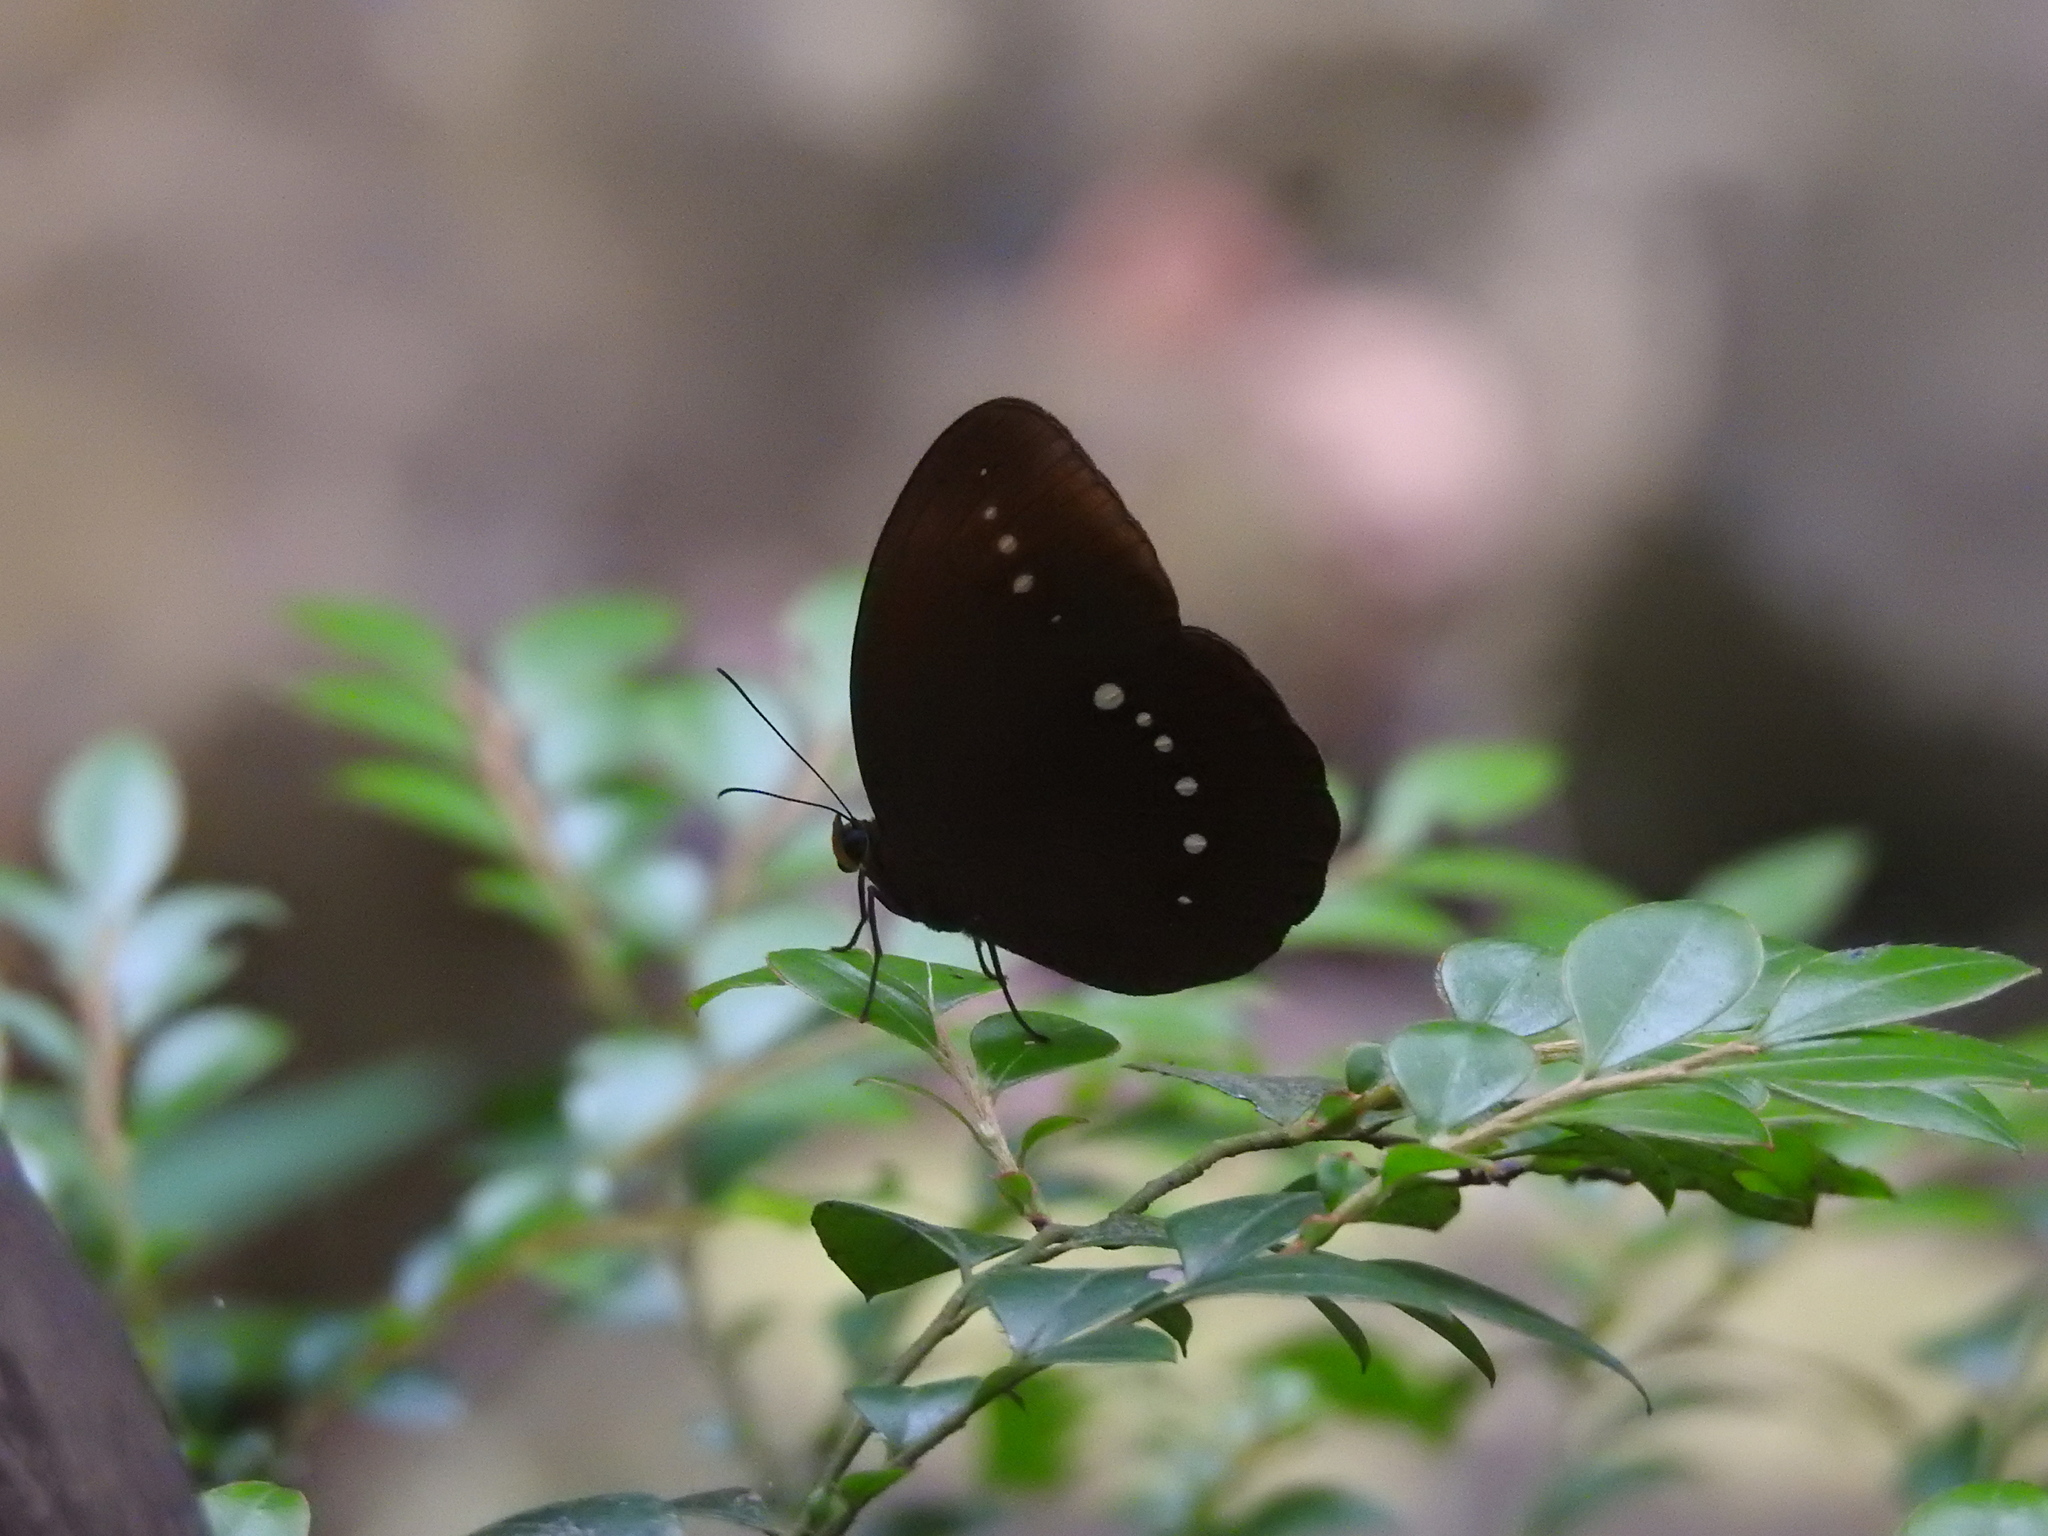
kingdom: Animalia
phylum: Arthropoda
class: Insecta
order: Lepidoptera
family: Nymphalidae
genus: Faunis
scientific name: Faunis eumeus
